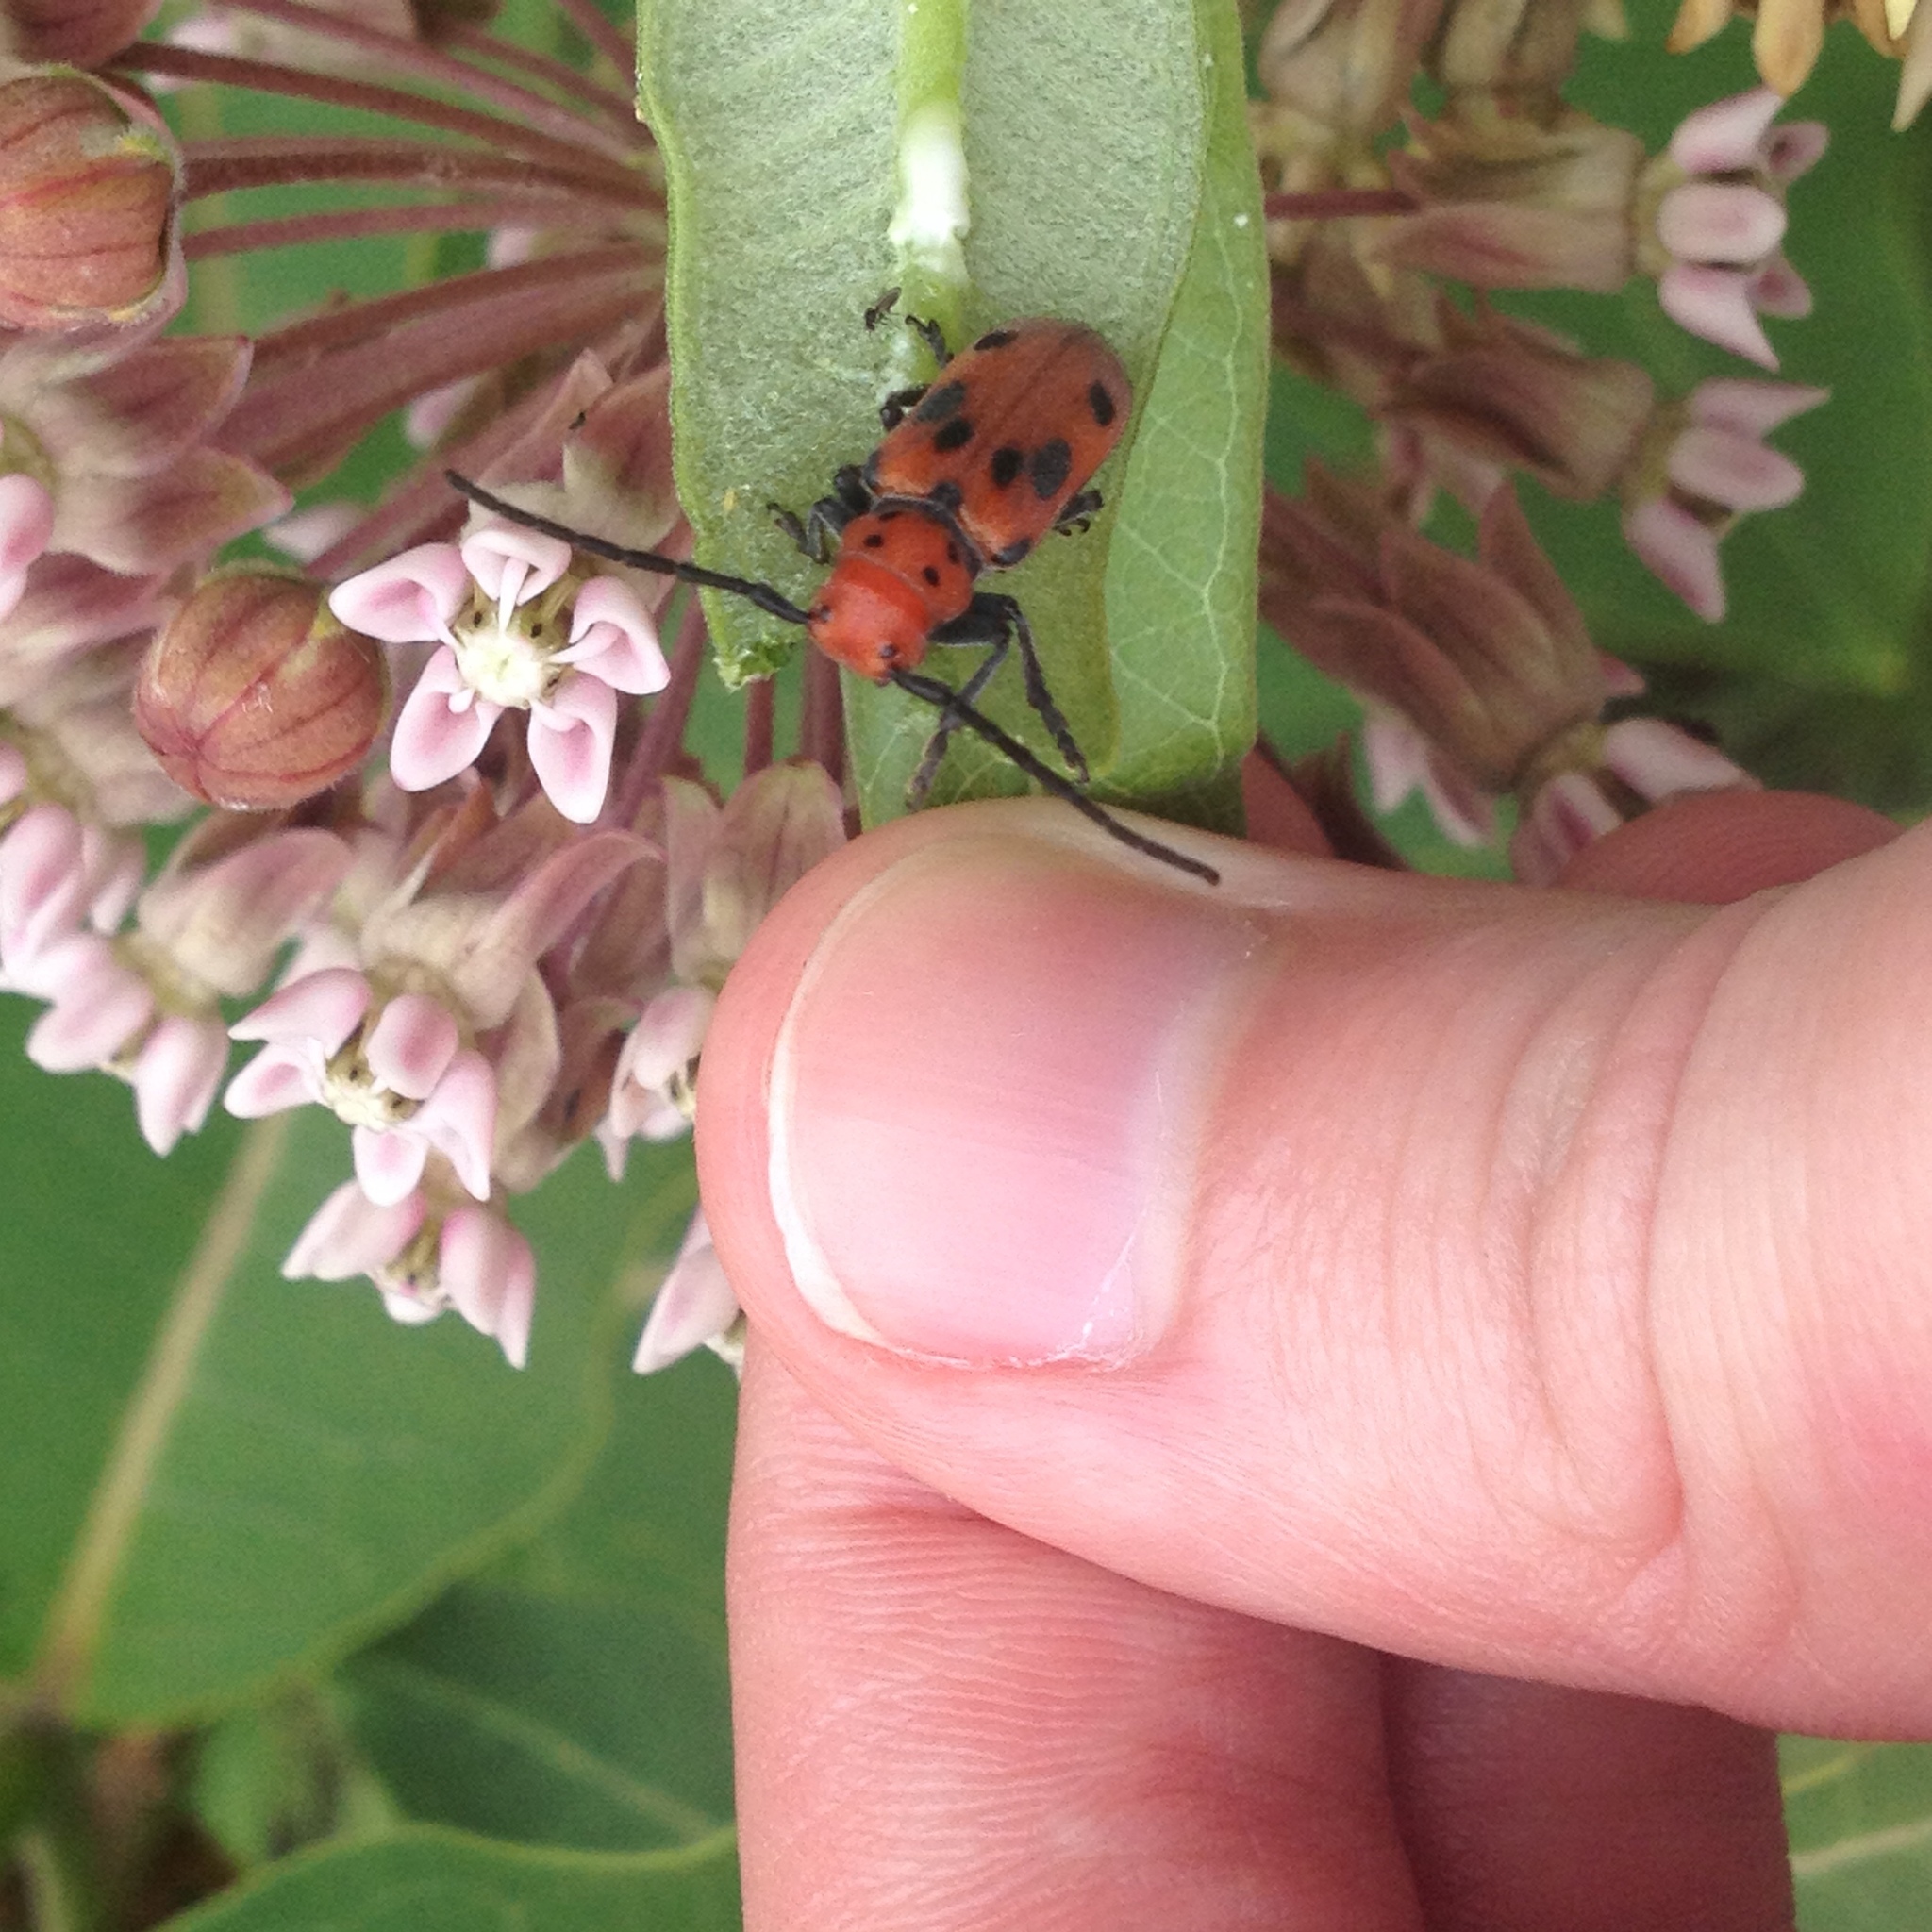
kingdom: Animalia
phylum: Arthropoda
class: Insecta
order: Coleoptera
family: Cerambycidae
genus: Tetraopes
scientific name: Tetraopes tetrophthalmus
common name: Red milkweed beetle
